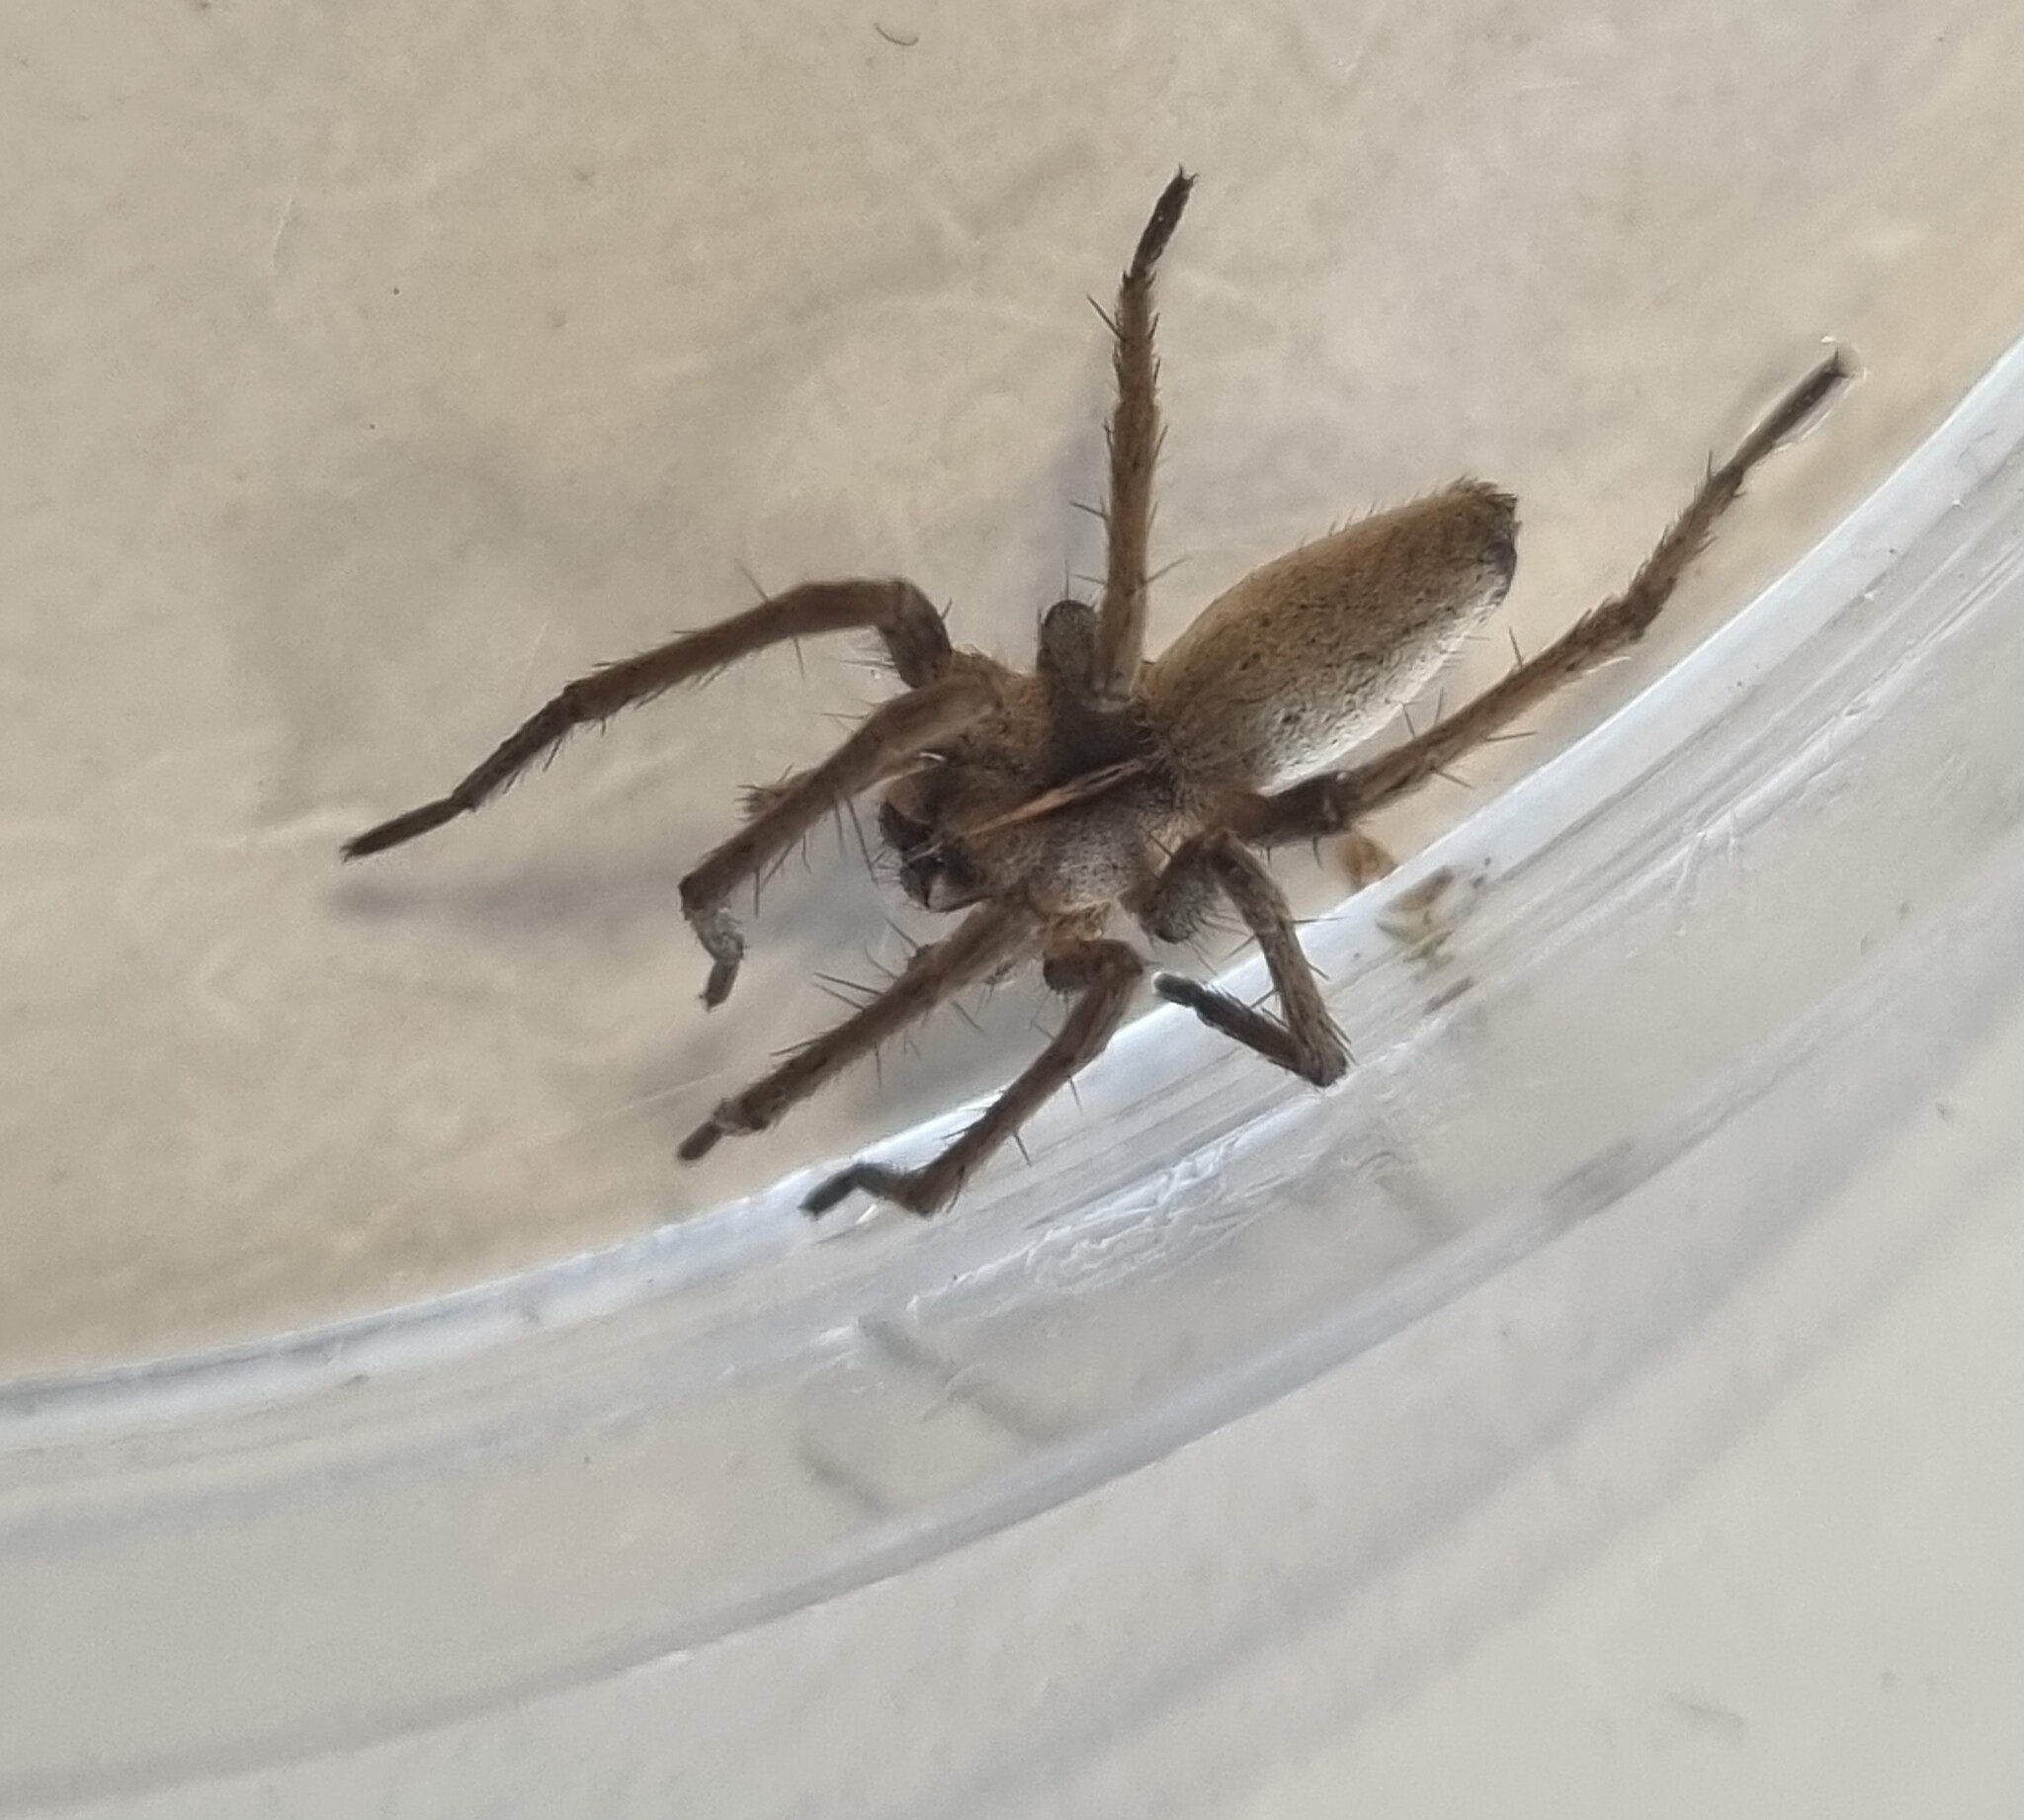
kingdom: Animalia
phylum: Arthropoda
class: Arachnida
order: Araneae
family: Pisauridae
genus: Pisaura
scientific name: Pisaura mirabilis
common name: Tent spider
